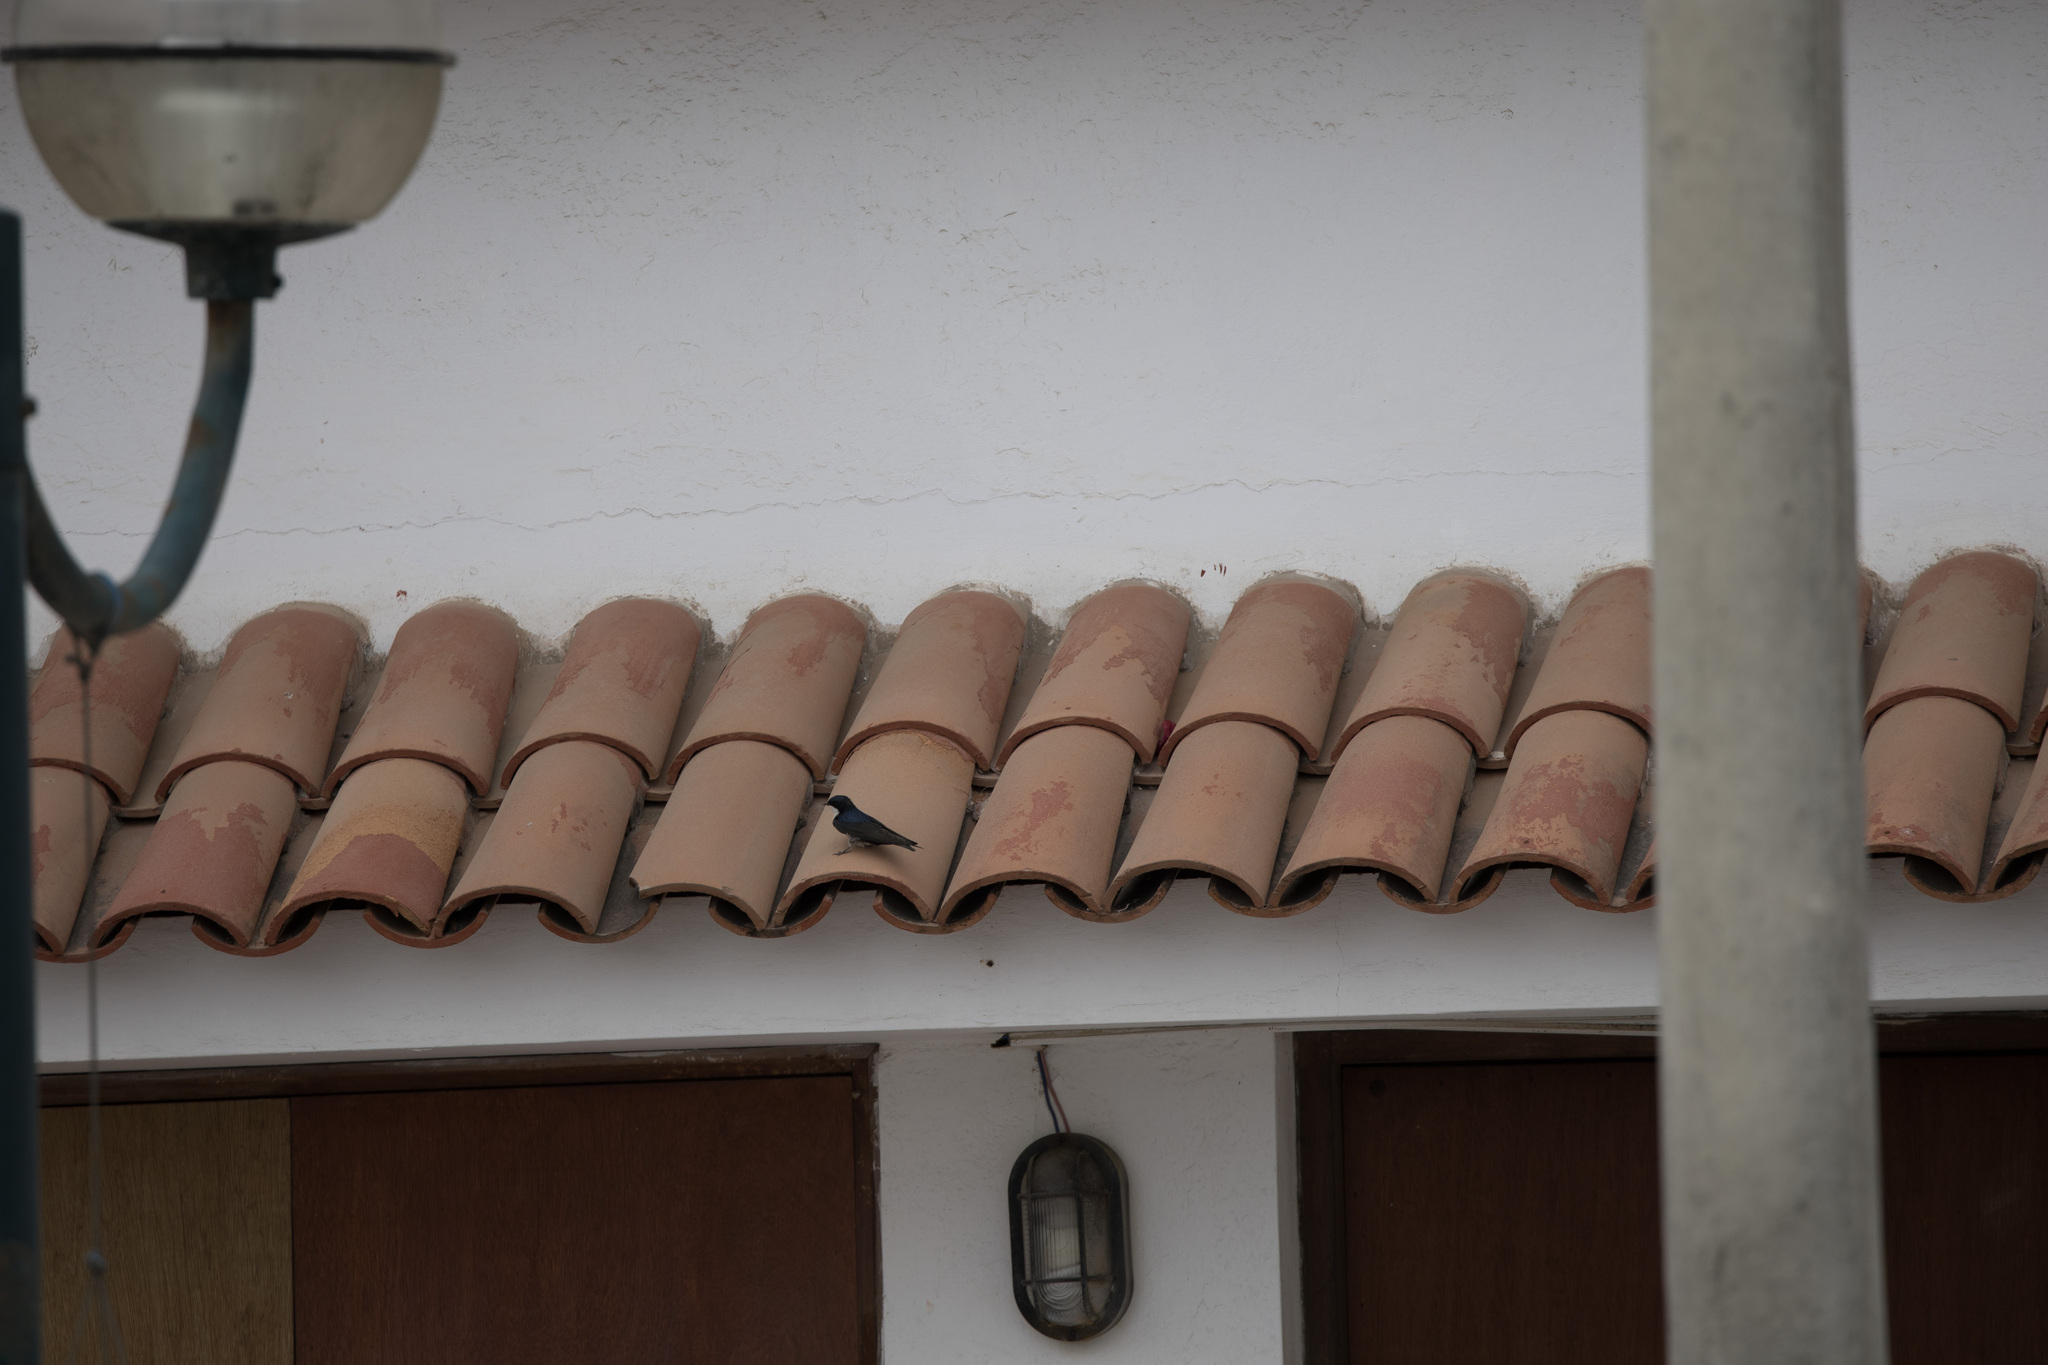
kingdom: Animalia
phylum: Chordata
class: Aves
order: Passeriformes
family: Hirundinidae
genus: Notiochelidon
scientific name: Notiochelidon cyanoleuca
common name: Blue-and-white swallow
